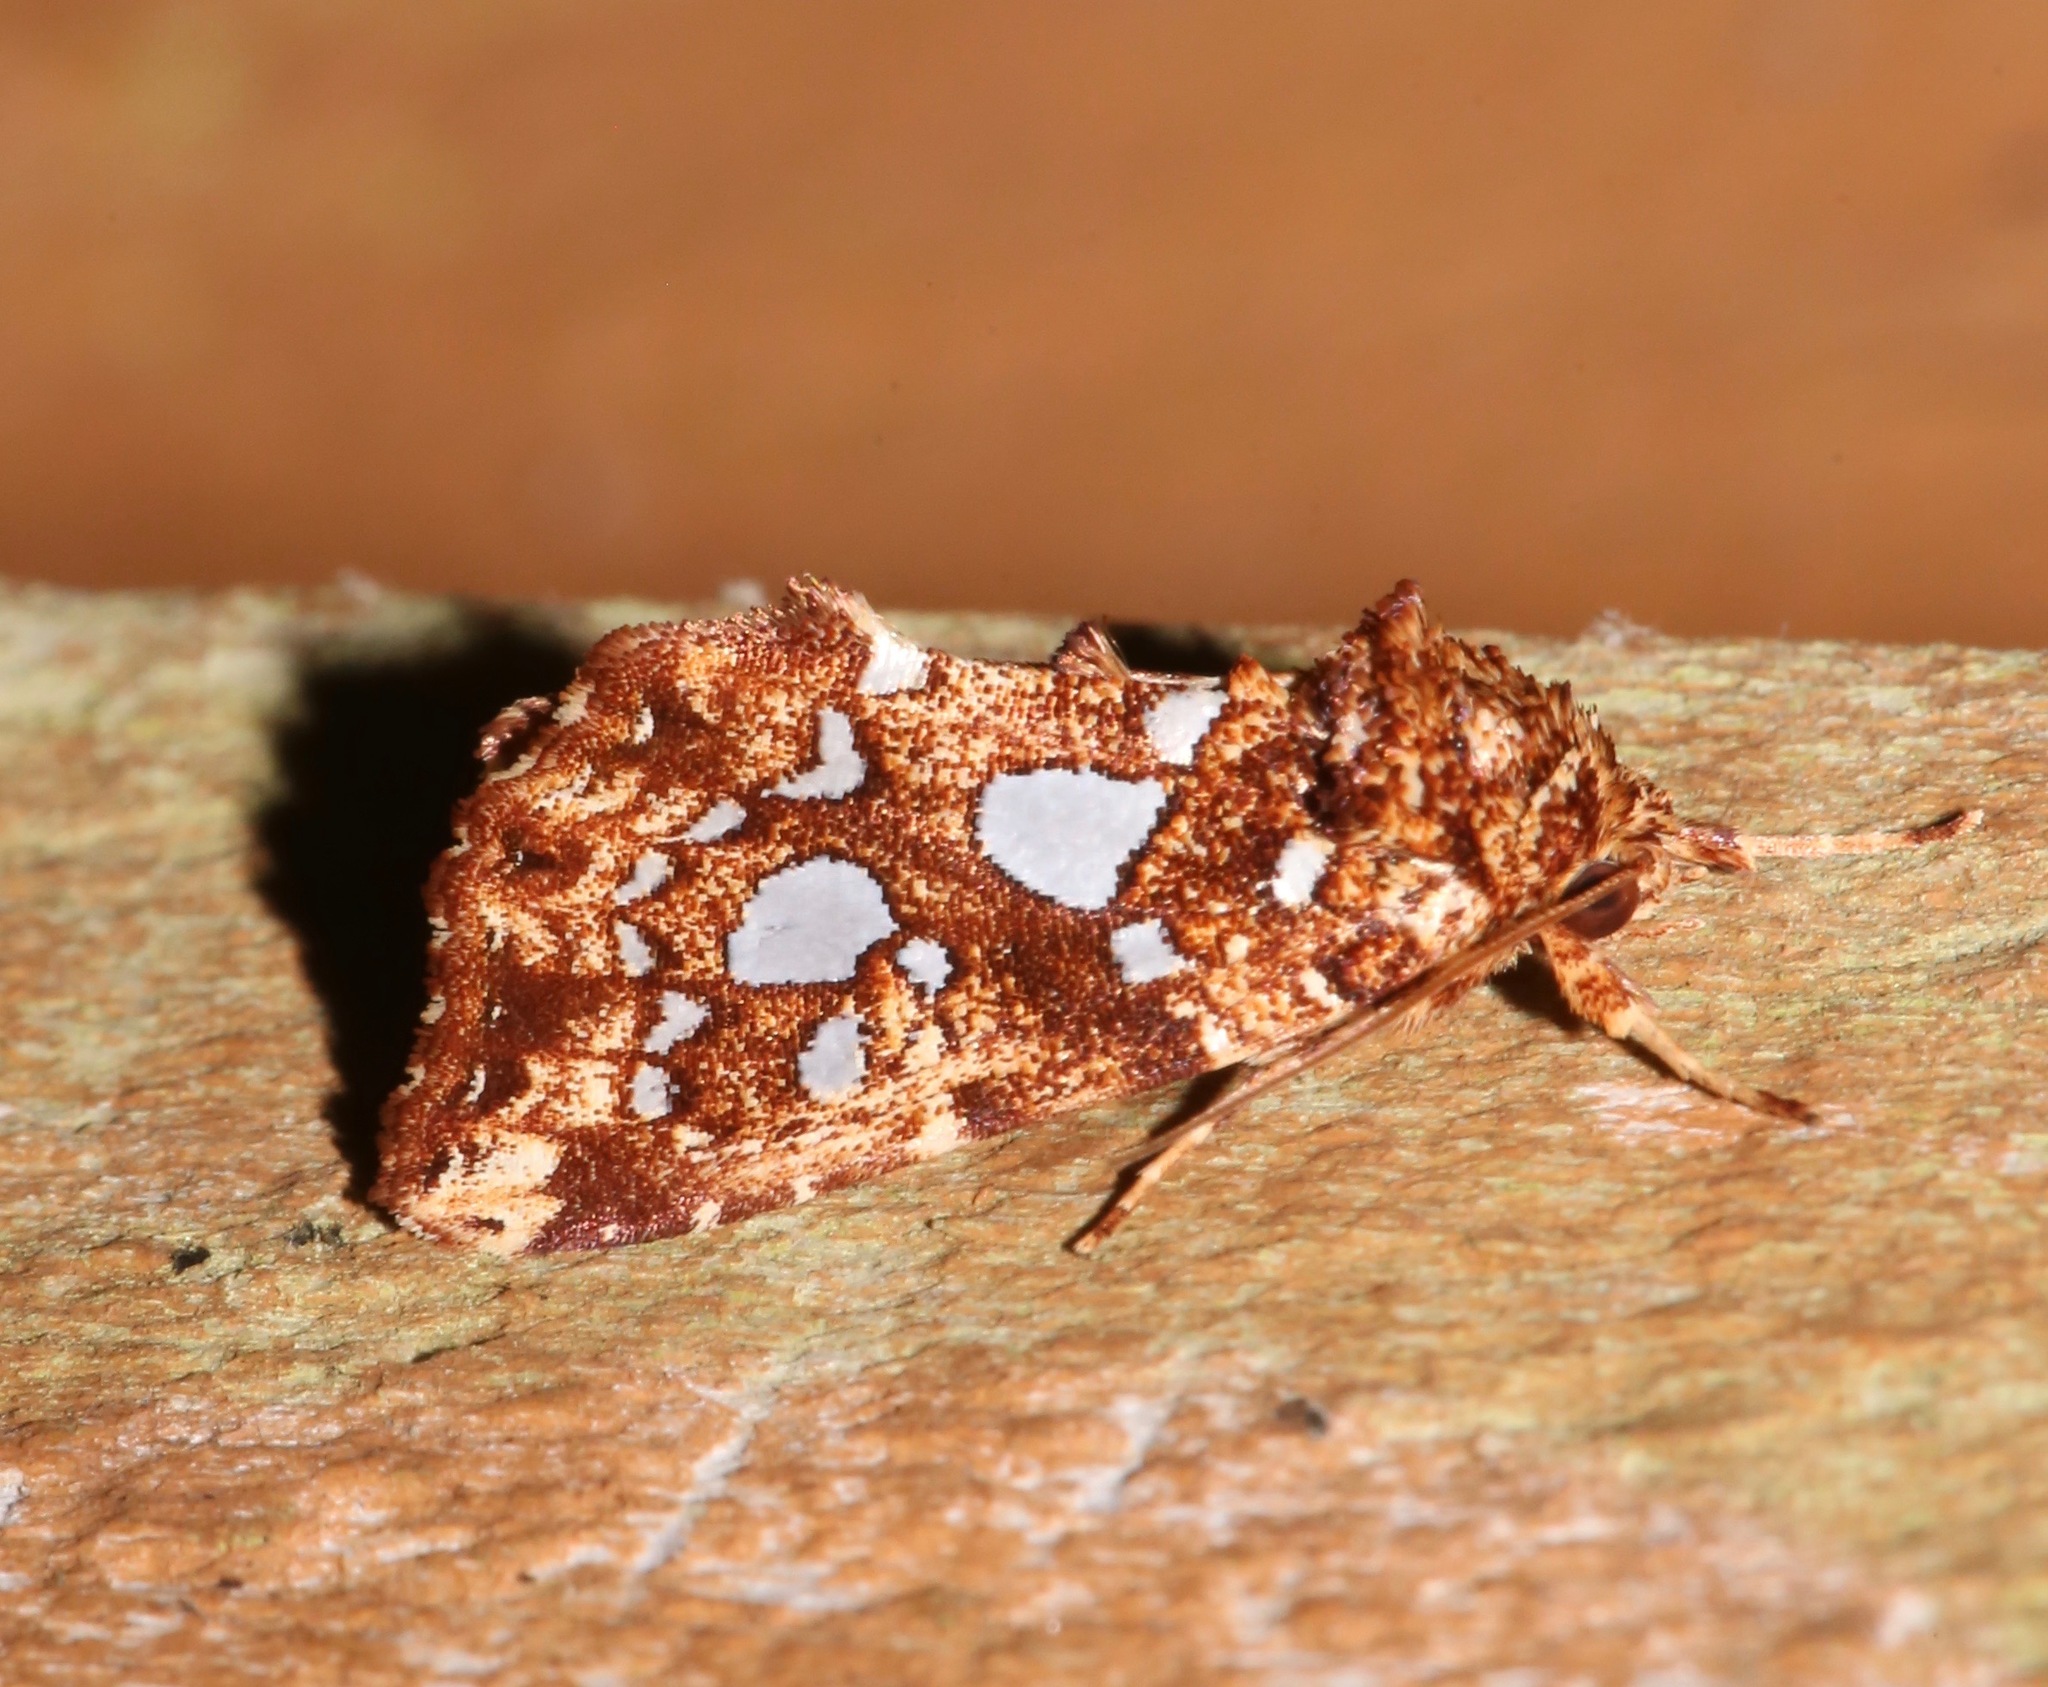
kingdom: Animalia
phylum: Arthropoda
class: Insecta
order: Lepidoptera
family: Noctuidae
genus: Callopistria
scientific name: Callopistria cordata
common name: Silver-spotted fern moth
